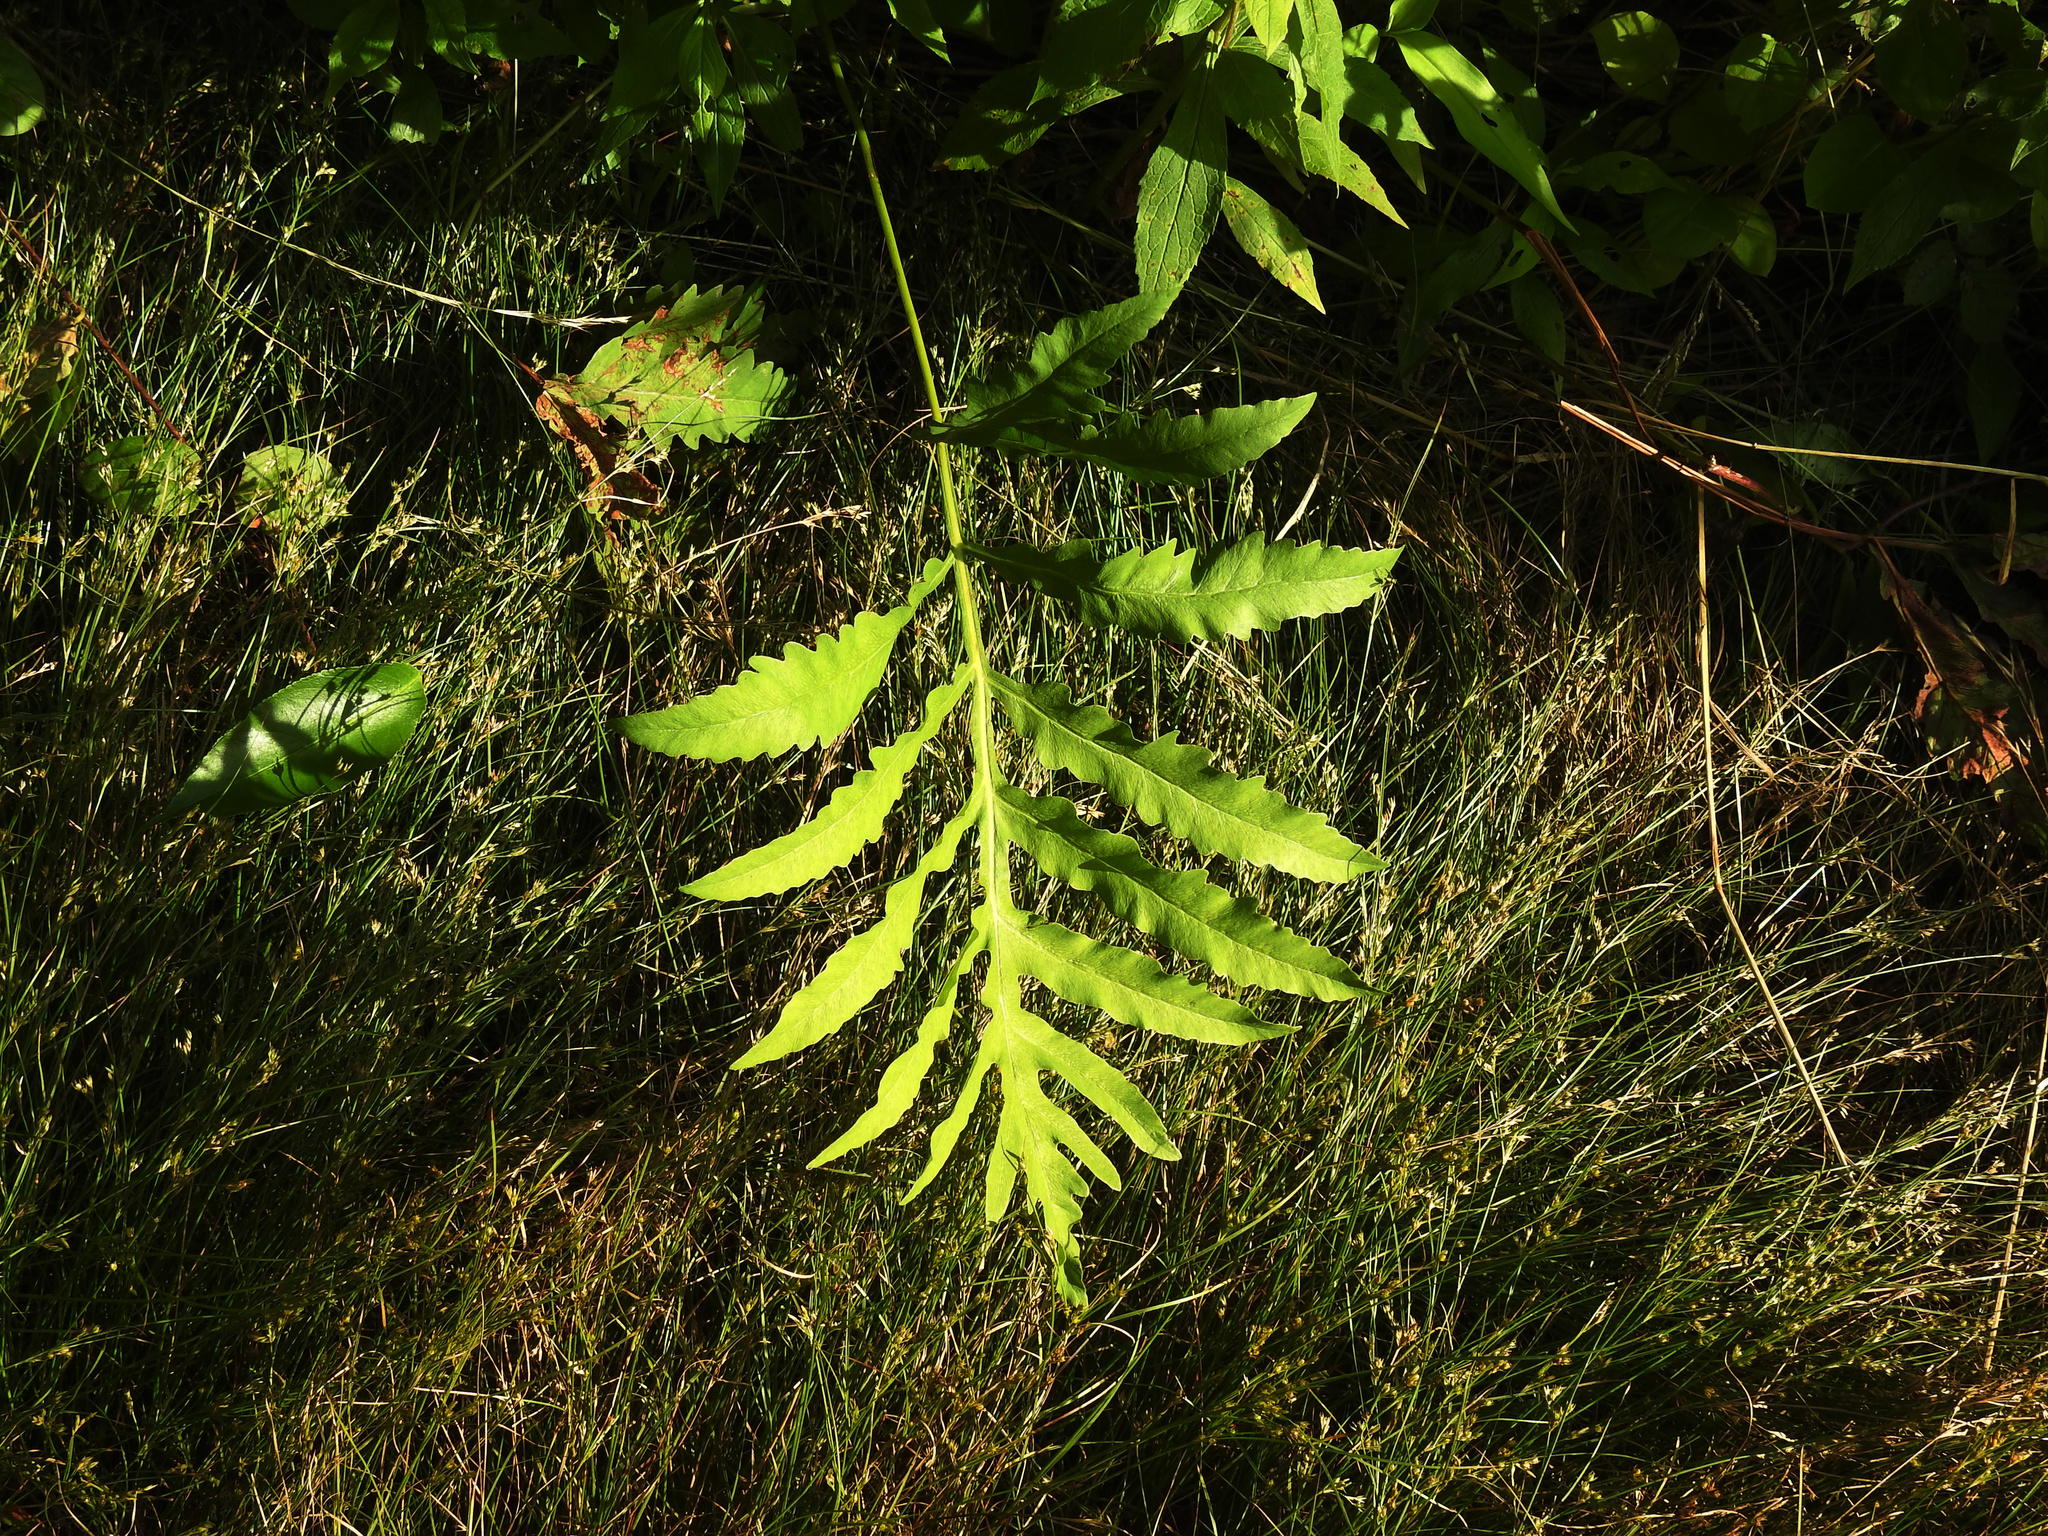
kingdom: Plantae
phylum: Tracheophyta
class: Polypodiopsida
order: Polypodiales
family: Onocleaceae
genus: Onoclea
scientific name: Onoclea sensibilis
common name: Sensitive fern
